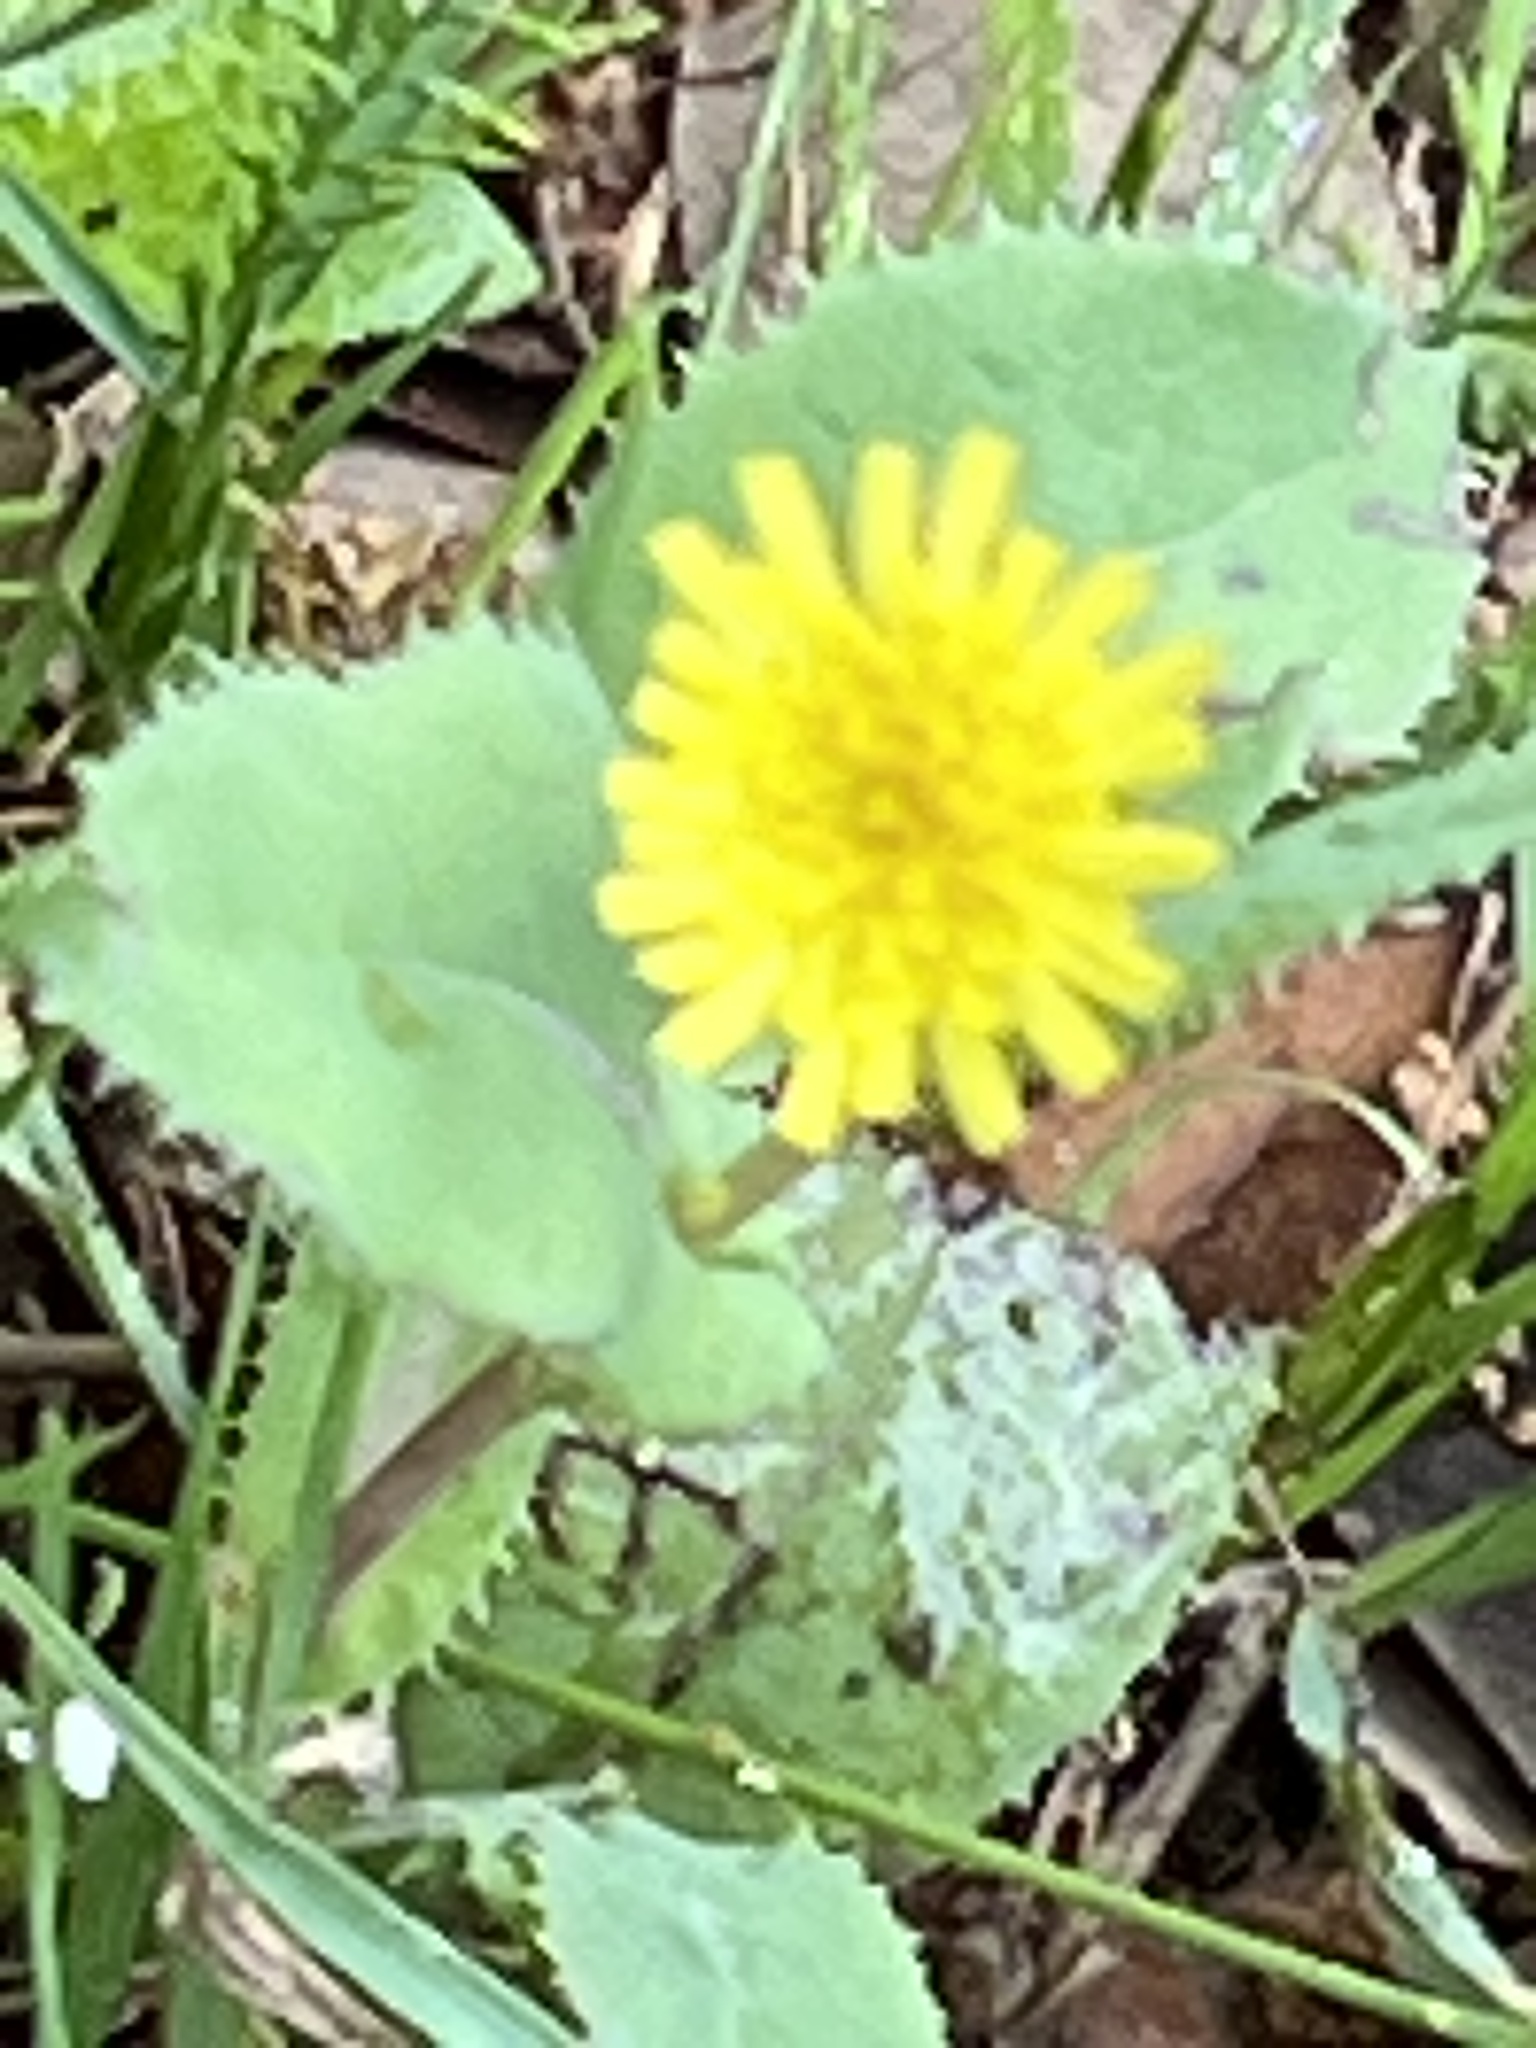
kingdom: Plantae
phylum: Tracheophyta
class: Magnoliopsida
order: Asterales
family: Asteraceae
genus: Taraxacum
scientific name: Taraxacum officinale
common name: Common dandelion
